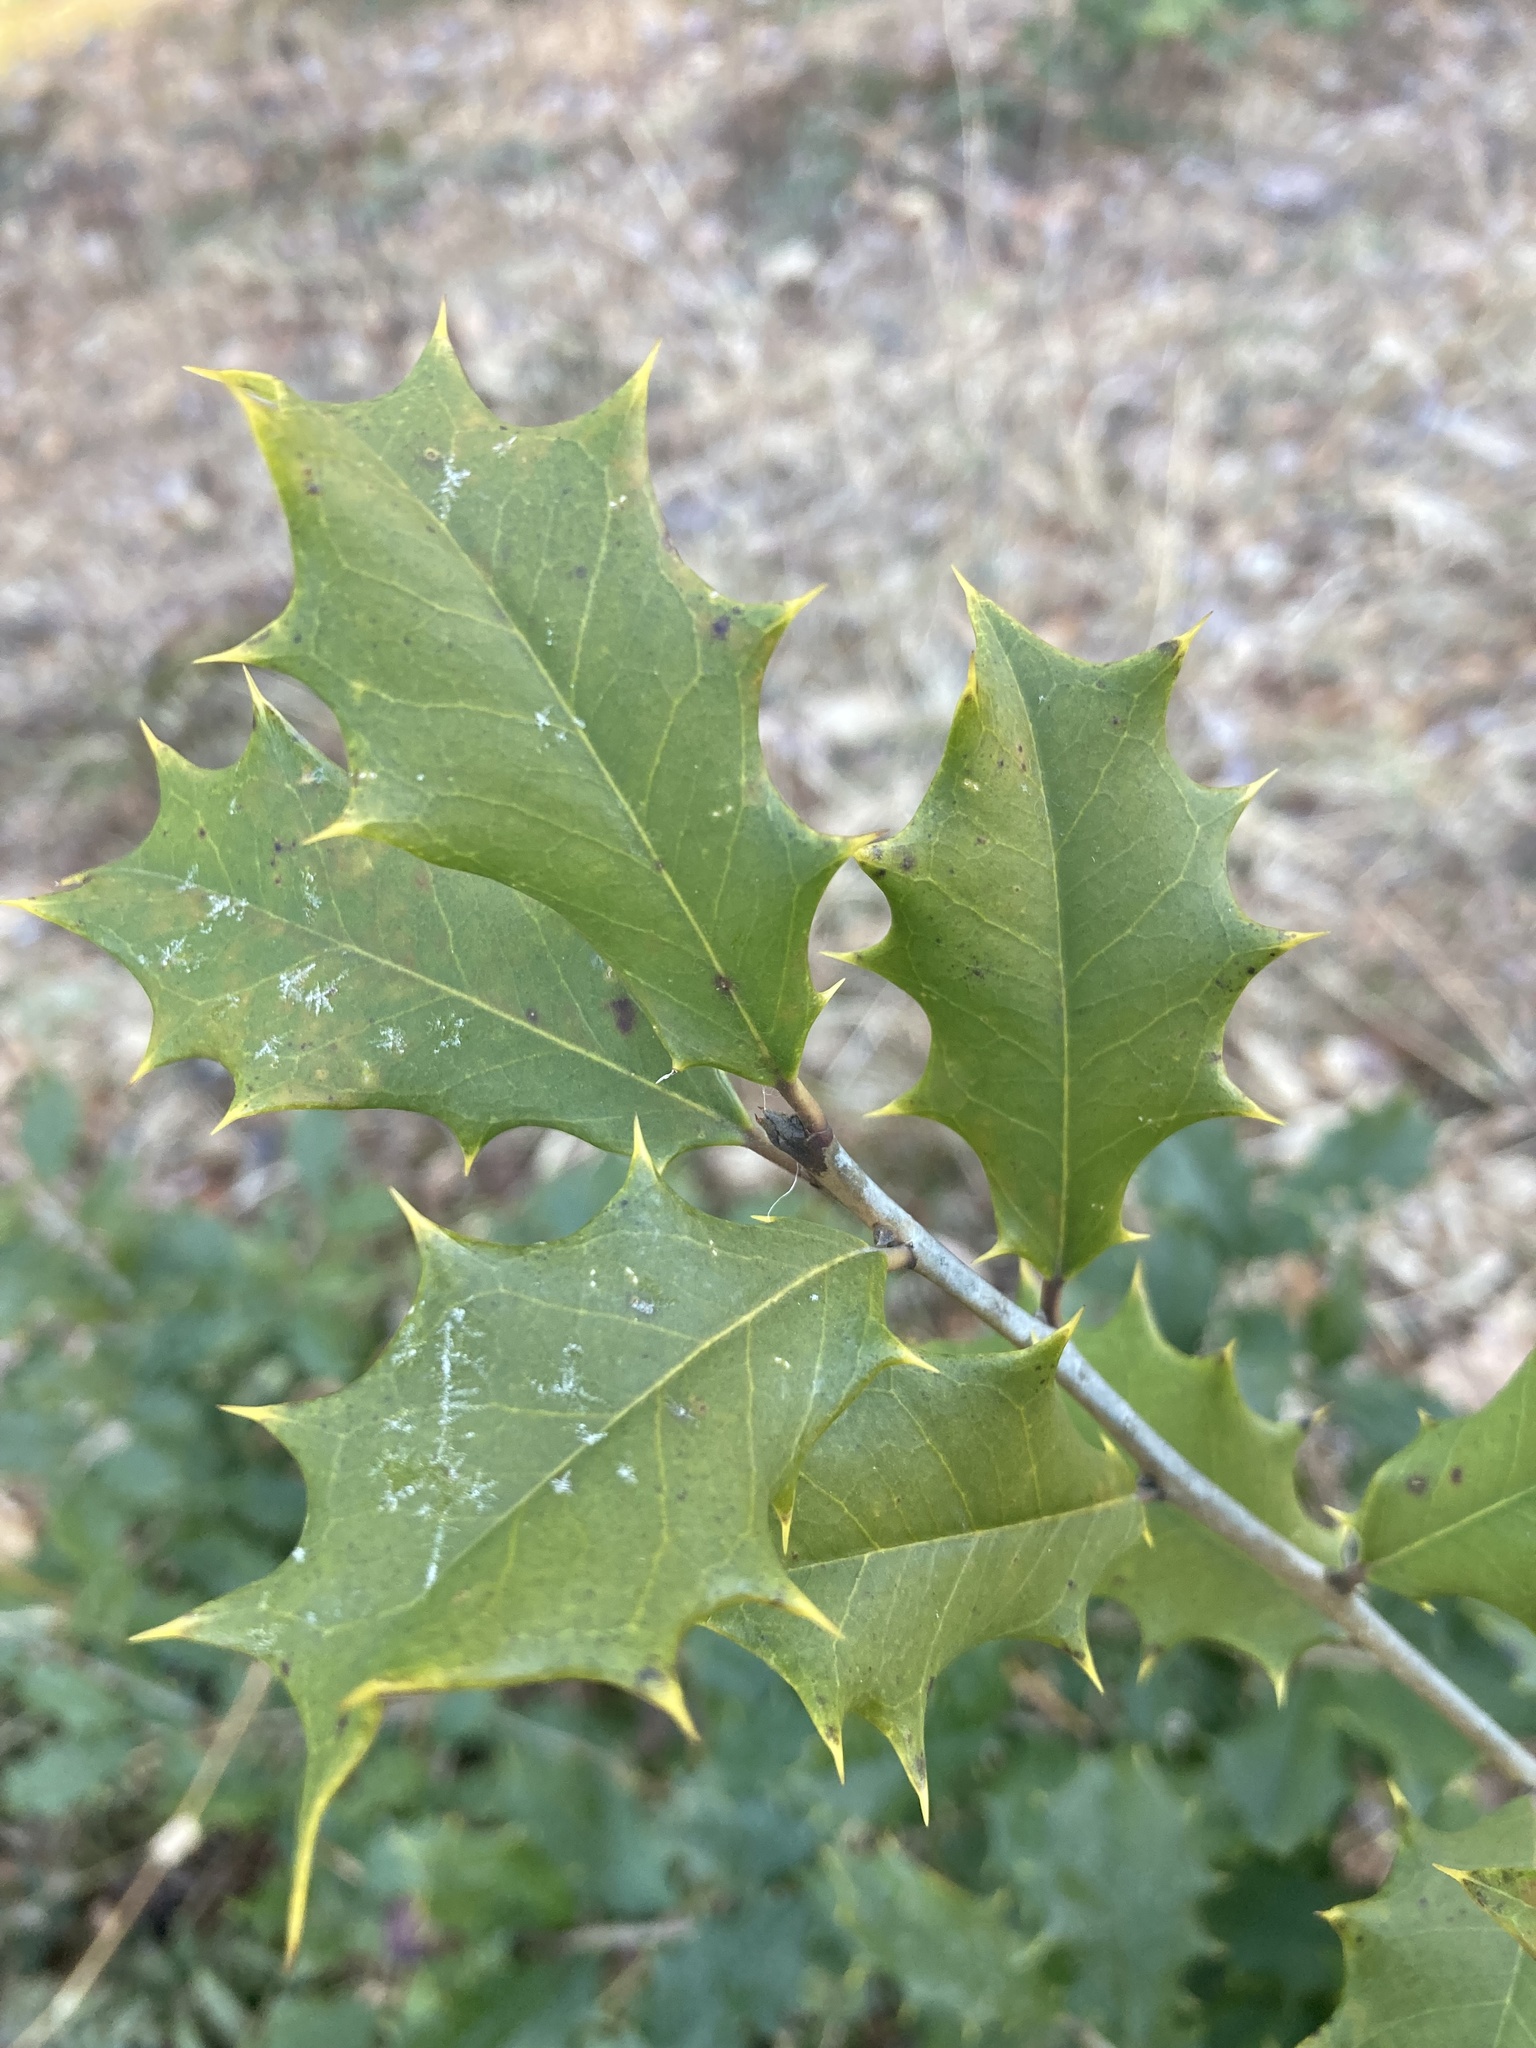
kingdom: Plantae
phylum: Tracheophyta
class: Magnoliopsida
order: Aquifoliales
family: Aquifoliaceae
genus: Ilex
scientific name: Ilex opaca
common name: American holly
